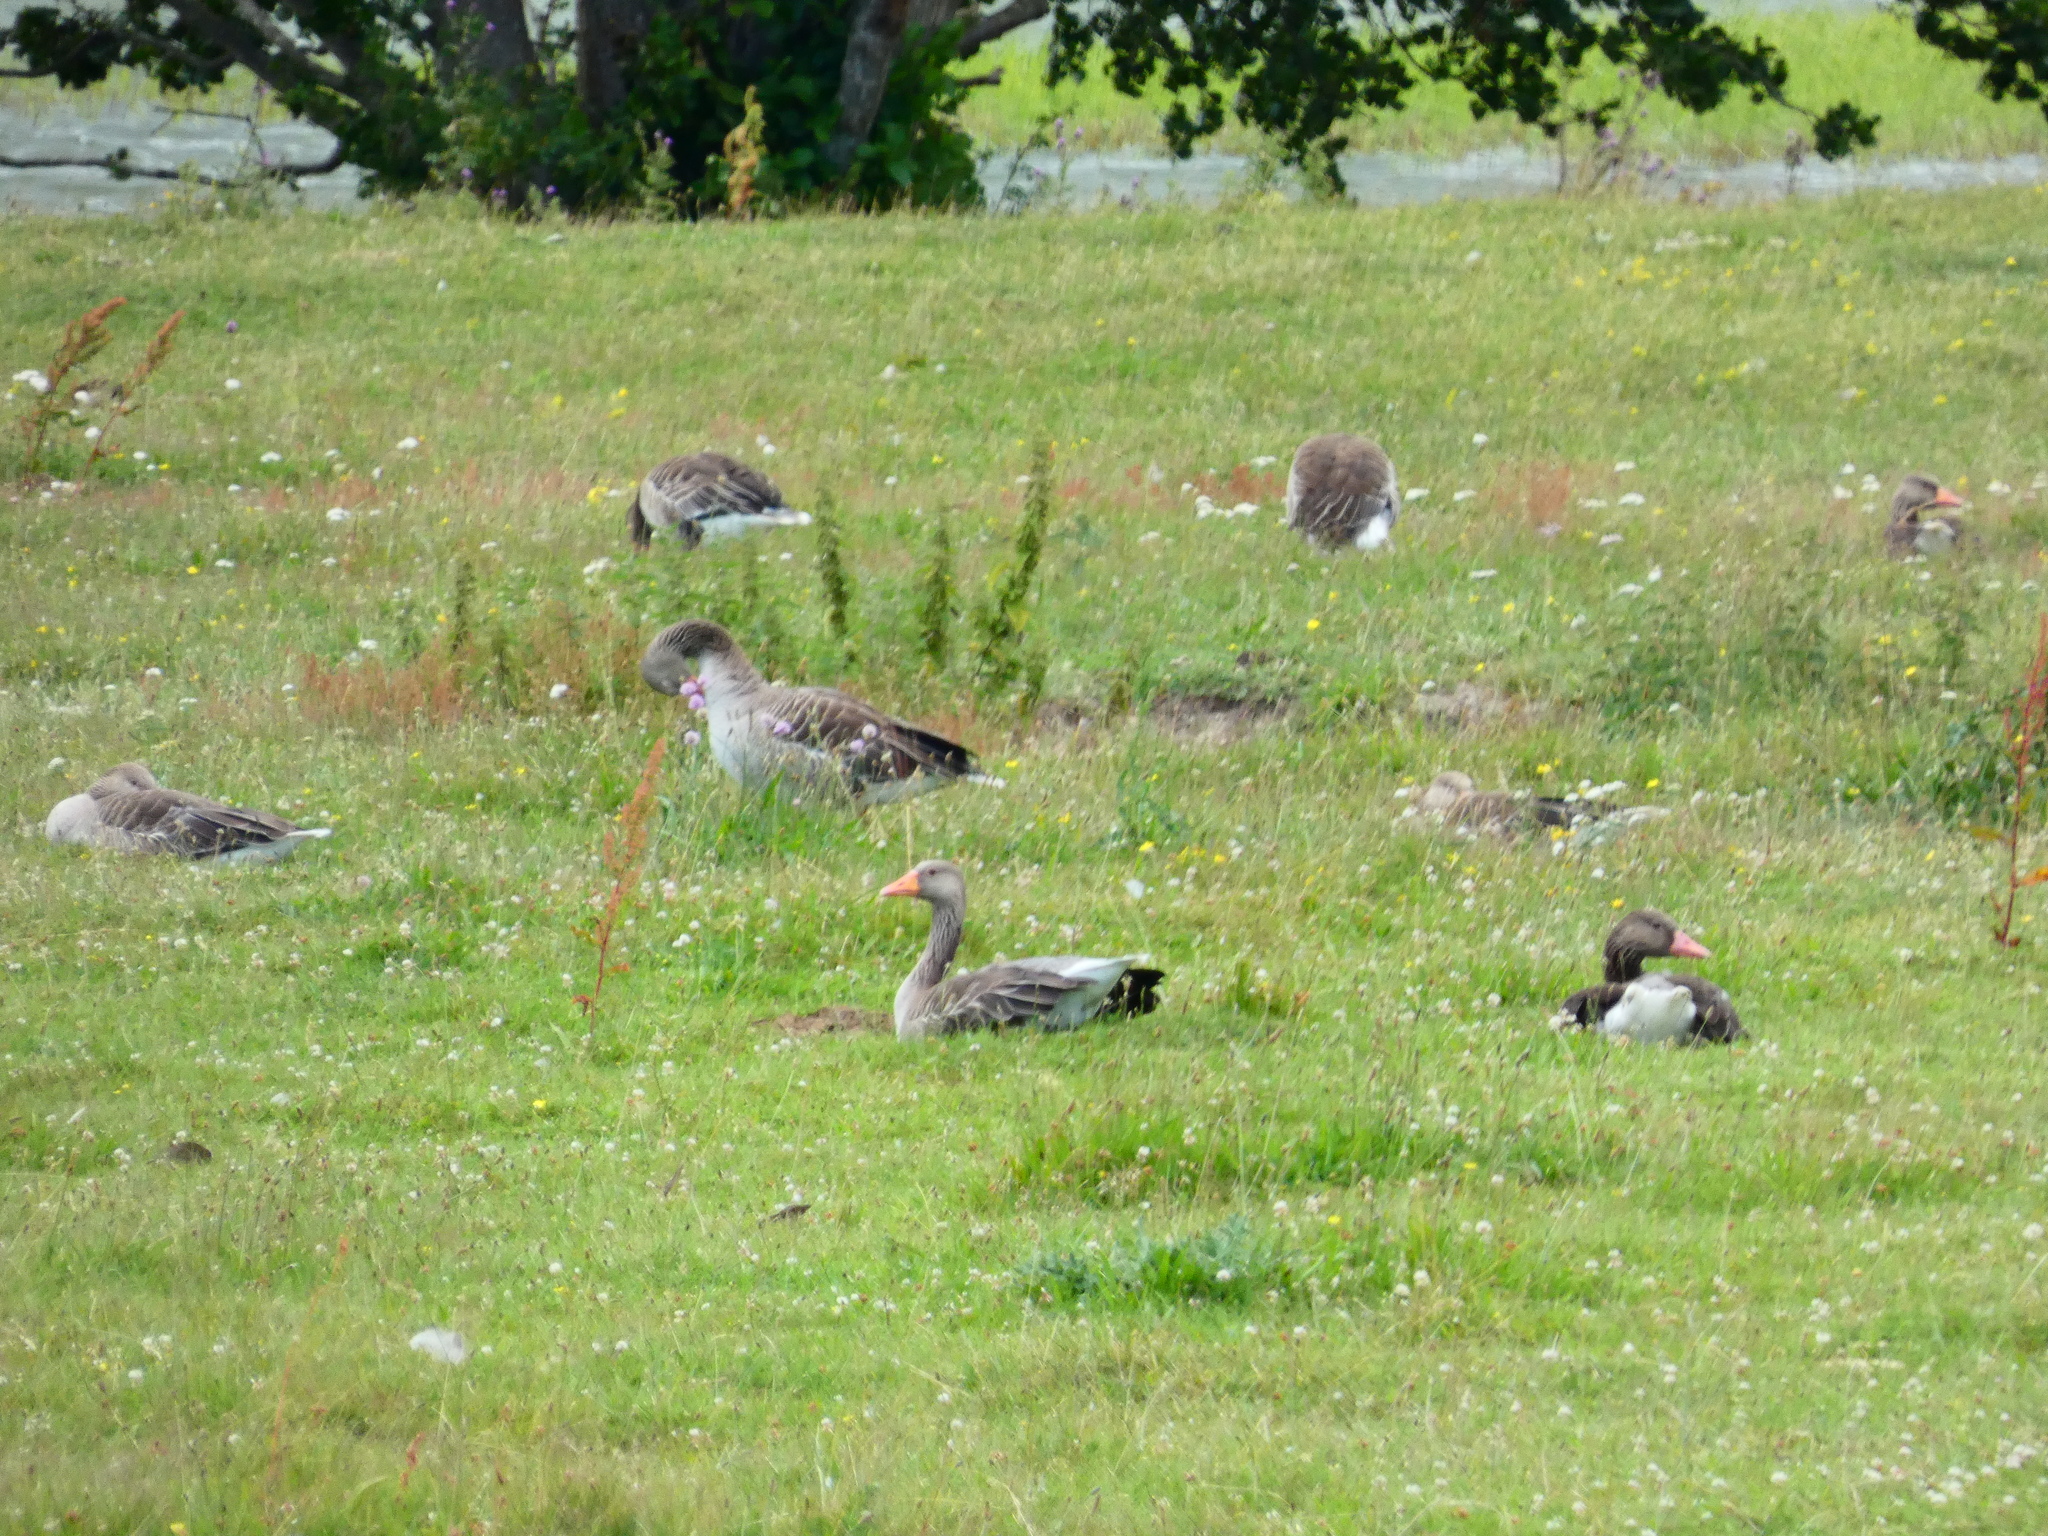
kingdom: Animalia
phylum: Chordata
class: Aves
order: Anseriformes
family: Anatidae
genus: Anser
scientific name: Anser anser
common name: Greylag goose
